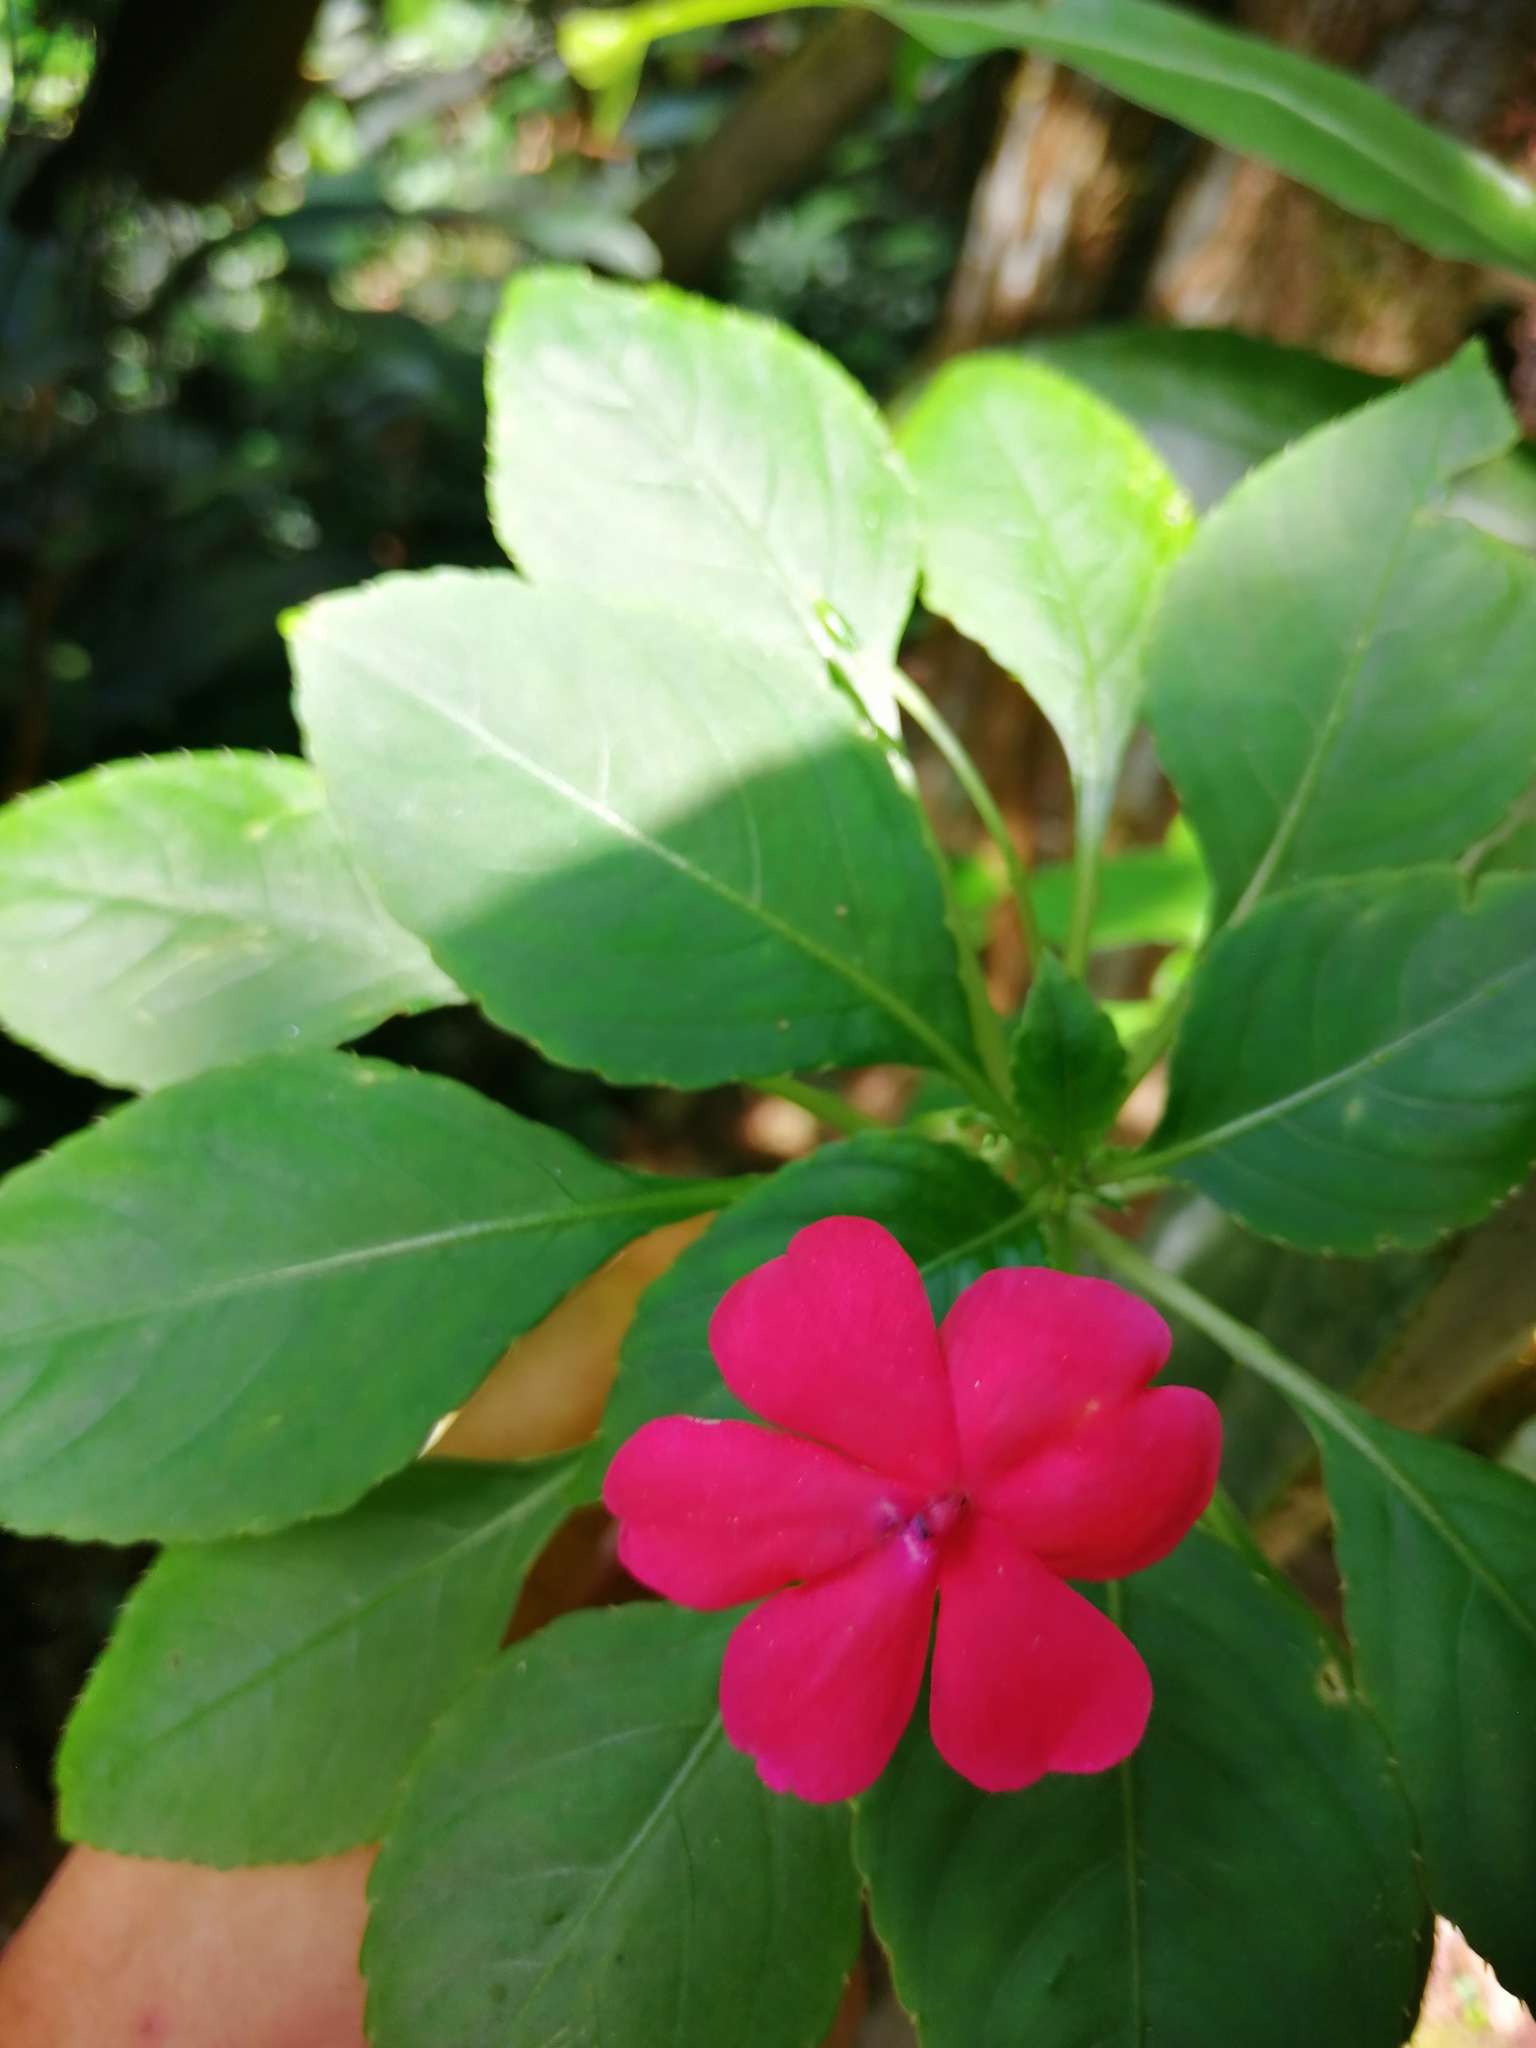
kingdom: Plantae
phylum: Tracheophyta
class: Magnoliopsida
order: Ericales
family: Balsaminaceae
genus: Impatiens
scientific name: Impatiens walleriana
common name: Buzzy lizzy
